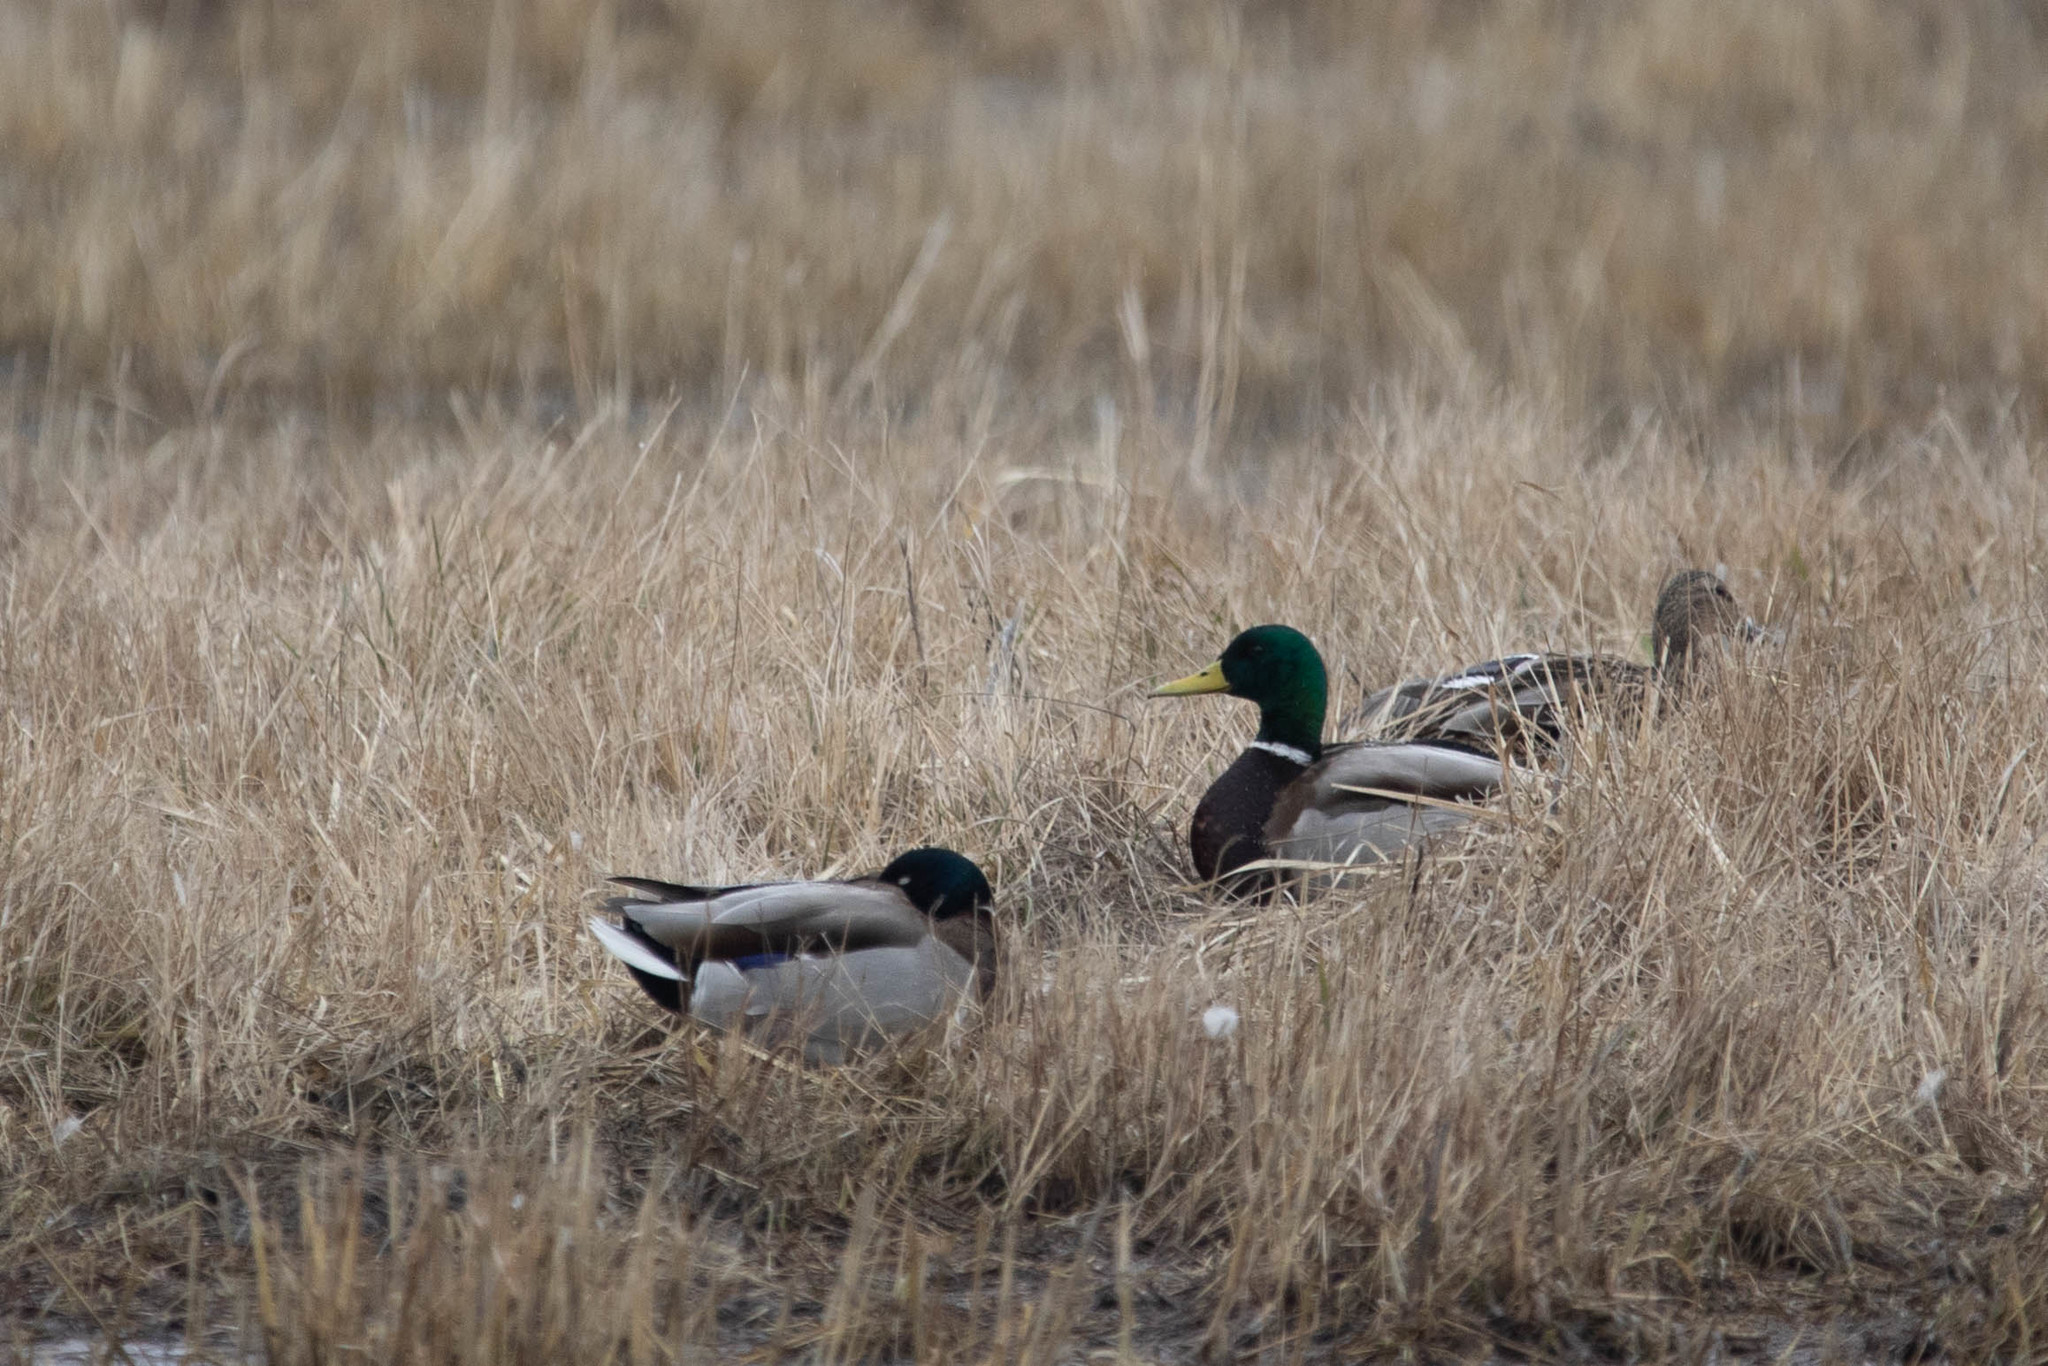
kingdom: Animalia
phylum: Chordata
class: Aves
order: Anseriformes
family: Anatidae
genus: Anas
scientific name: Anas platyrhynchos
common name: Mallard
